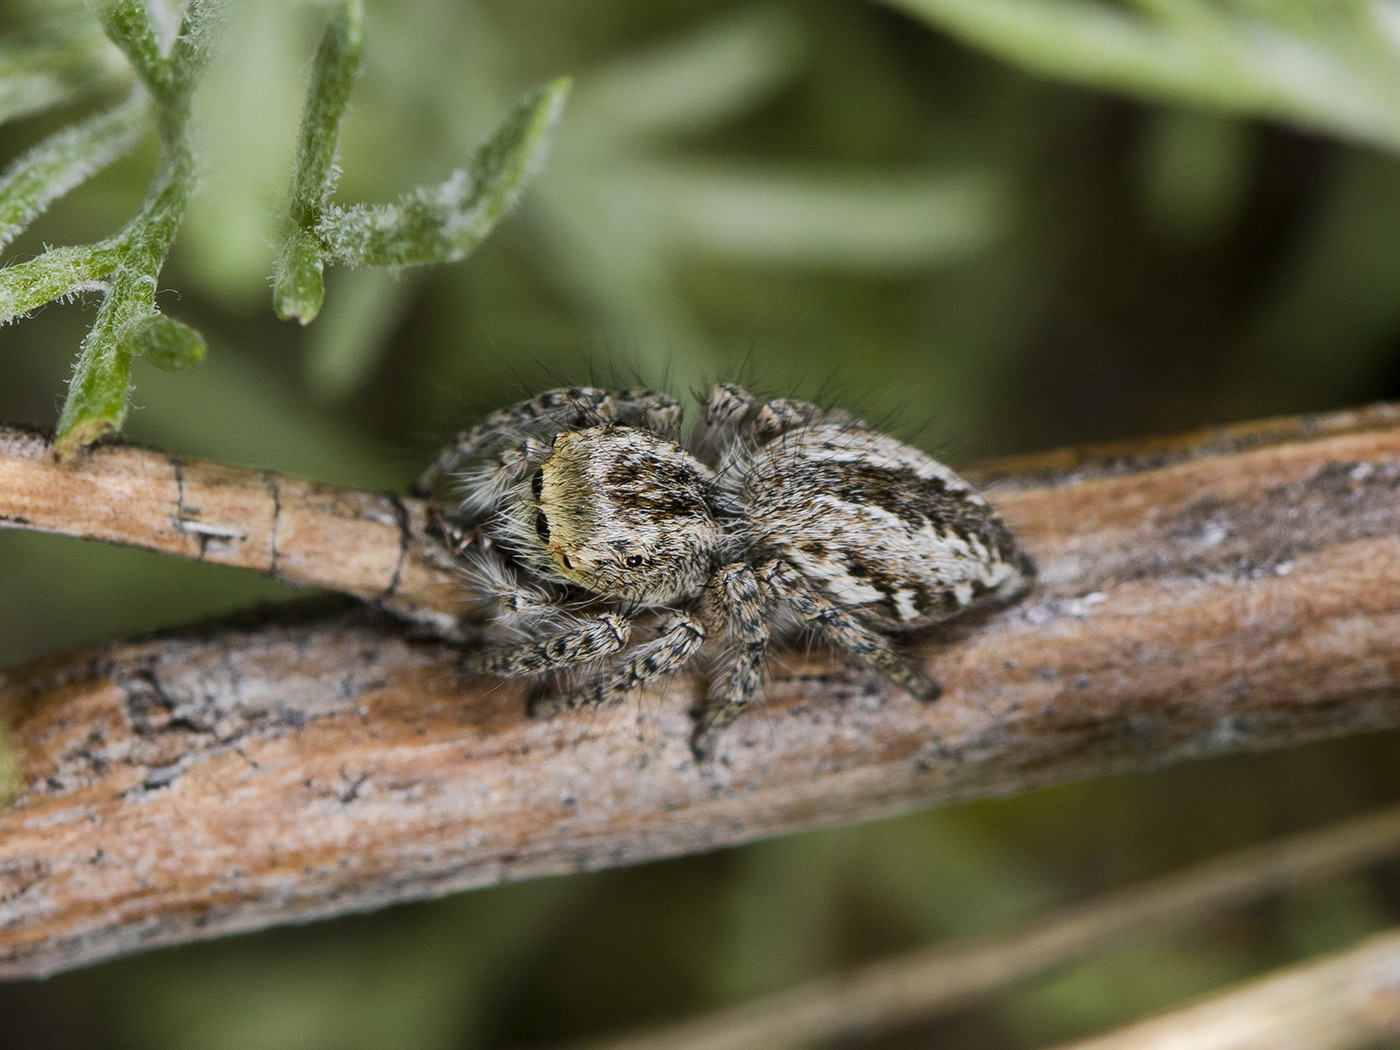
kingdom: Animalia
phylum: Arthropoda
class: Arachnida
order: Araneae
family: Salticidae
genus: Mogrus
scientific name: Mogrus larisae
